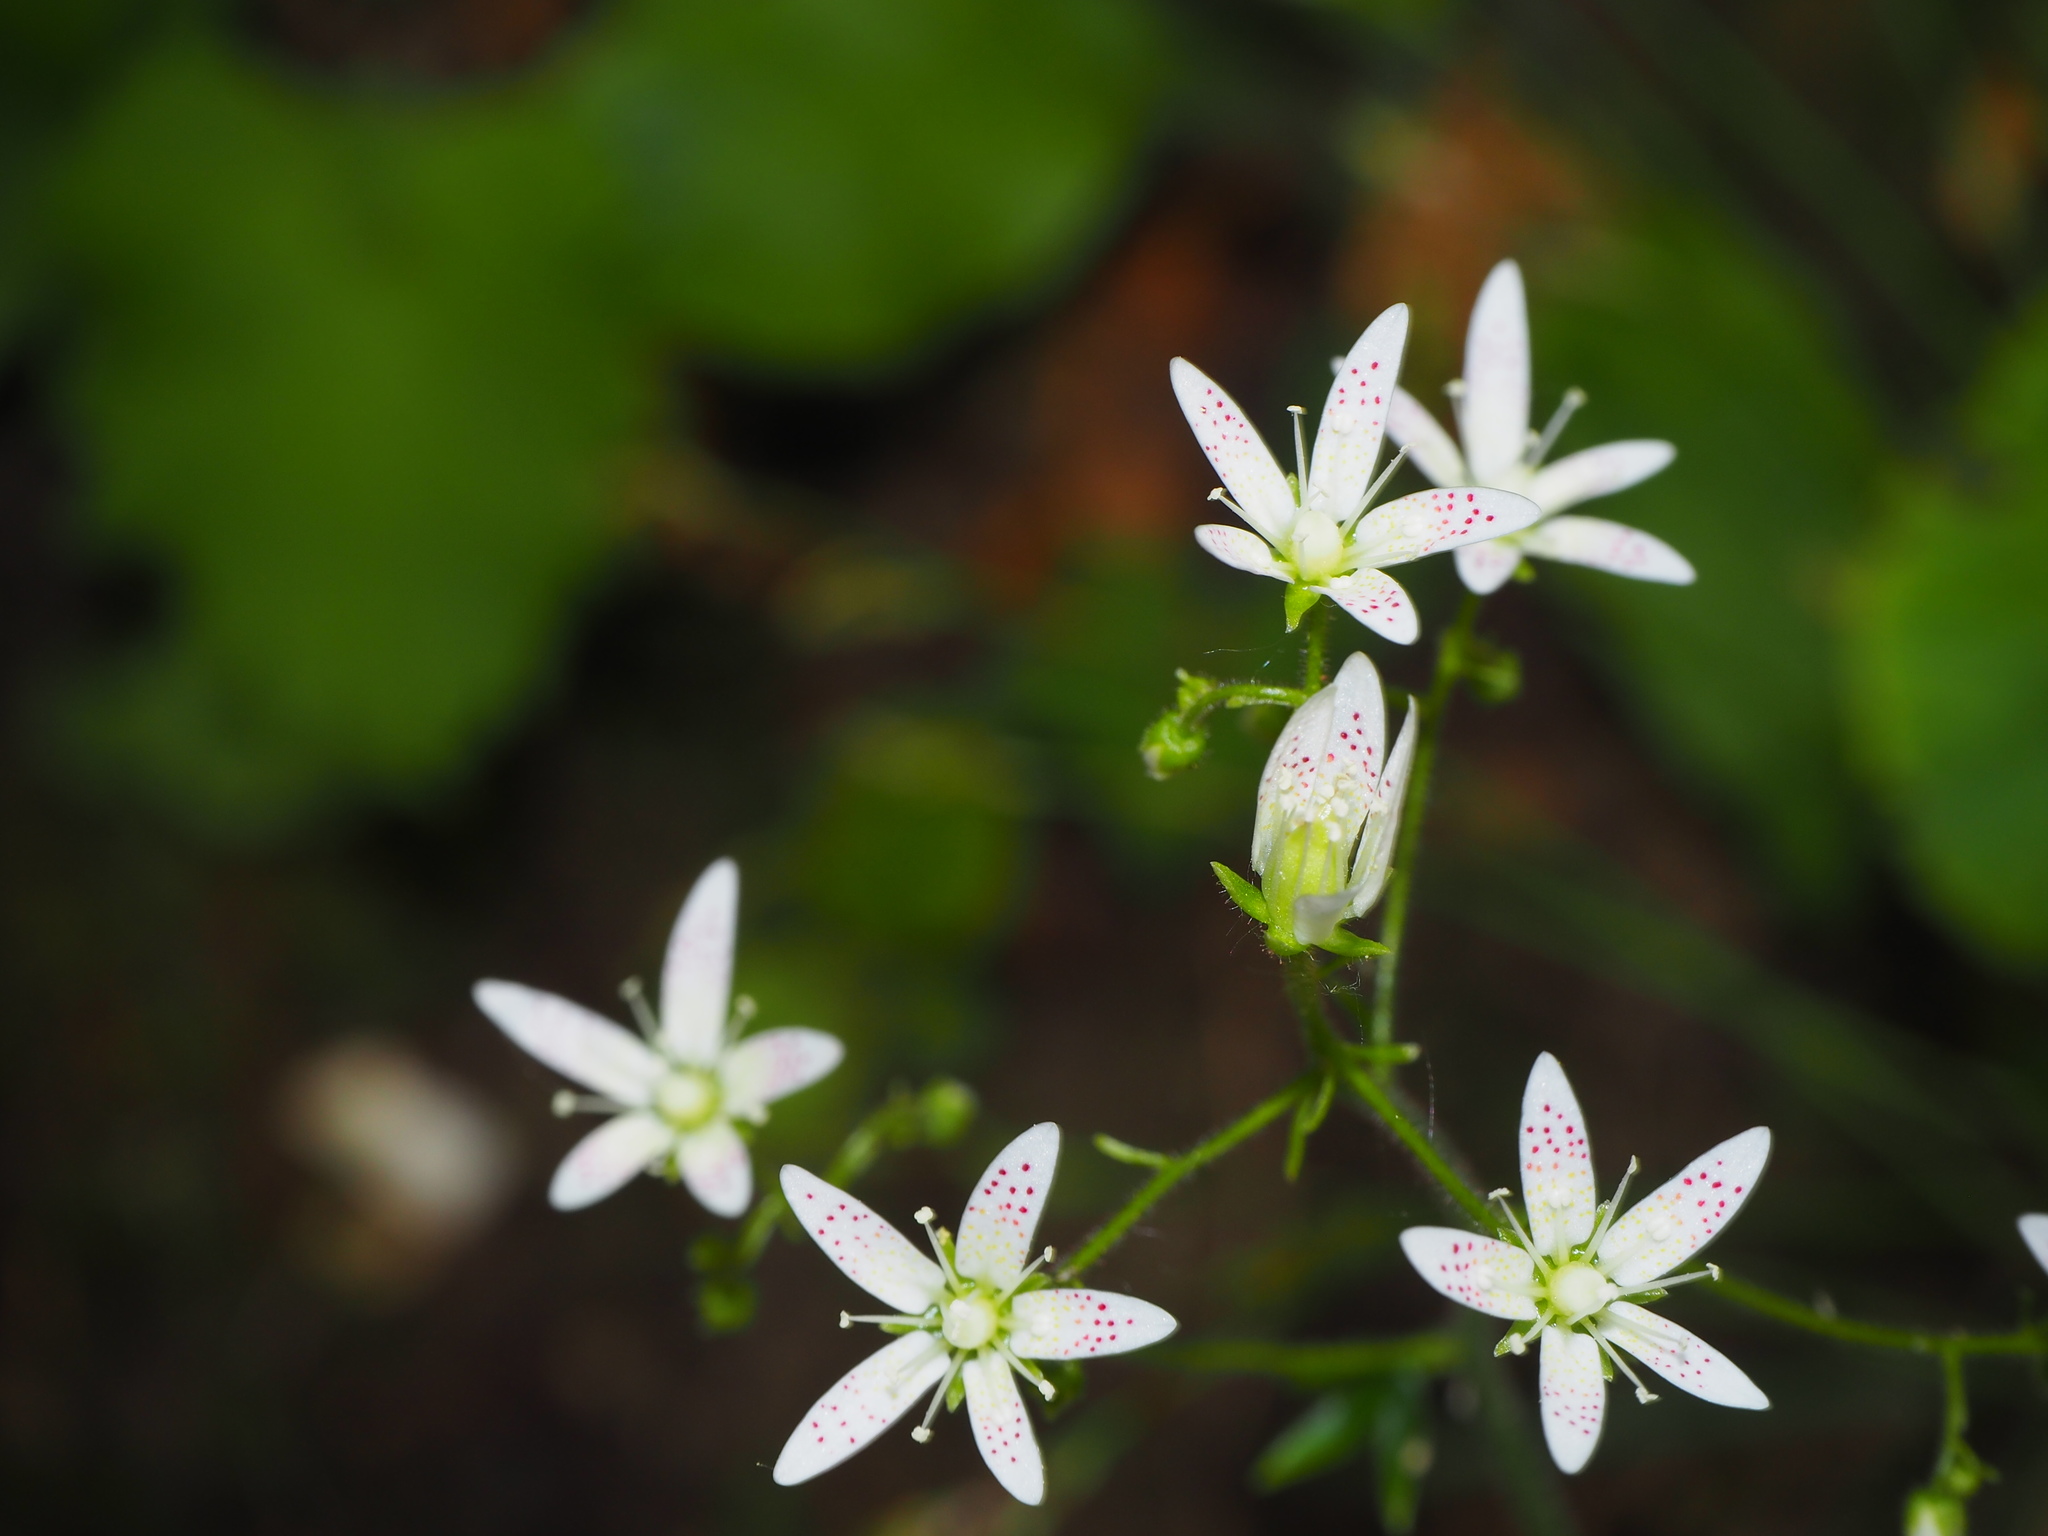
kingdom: Plantae
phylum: Tracheophyta
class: Magnoliopsida
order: Saxifragales
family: Saxifragaceae
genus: Saxifraga
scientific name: Saxifraga rotundifolia
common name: Round-leaved saxifrage
